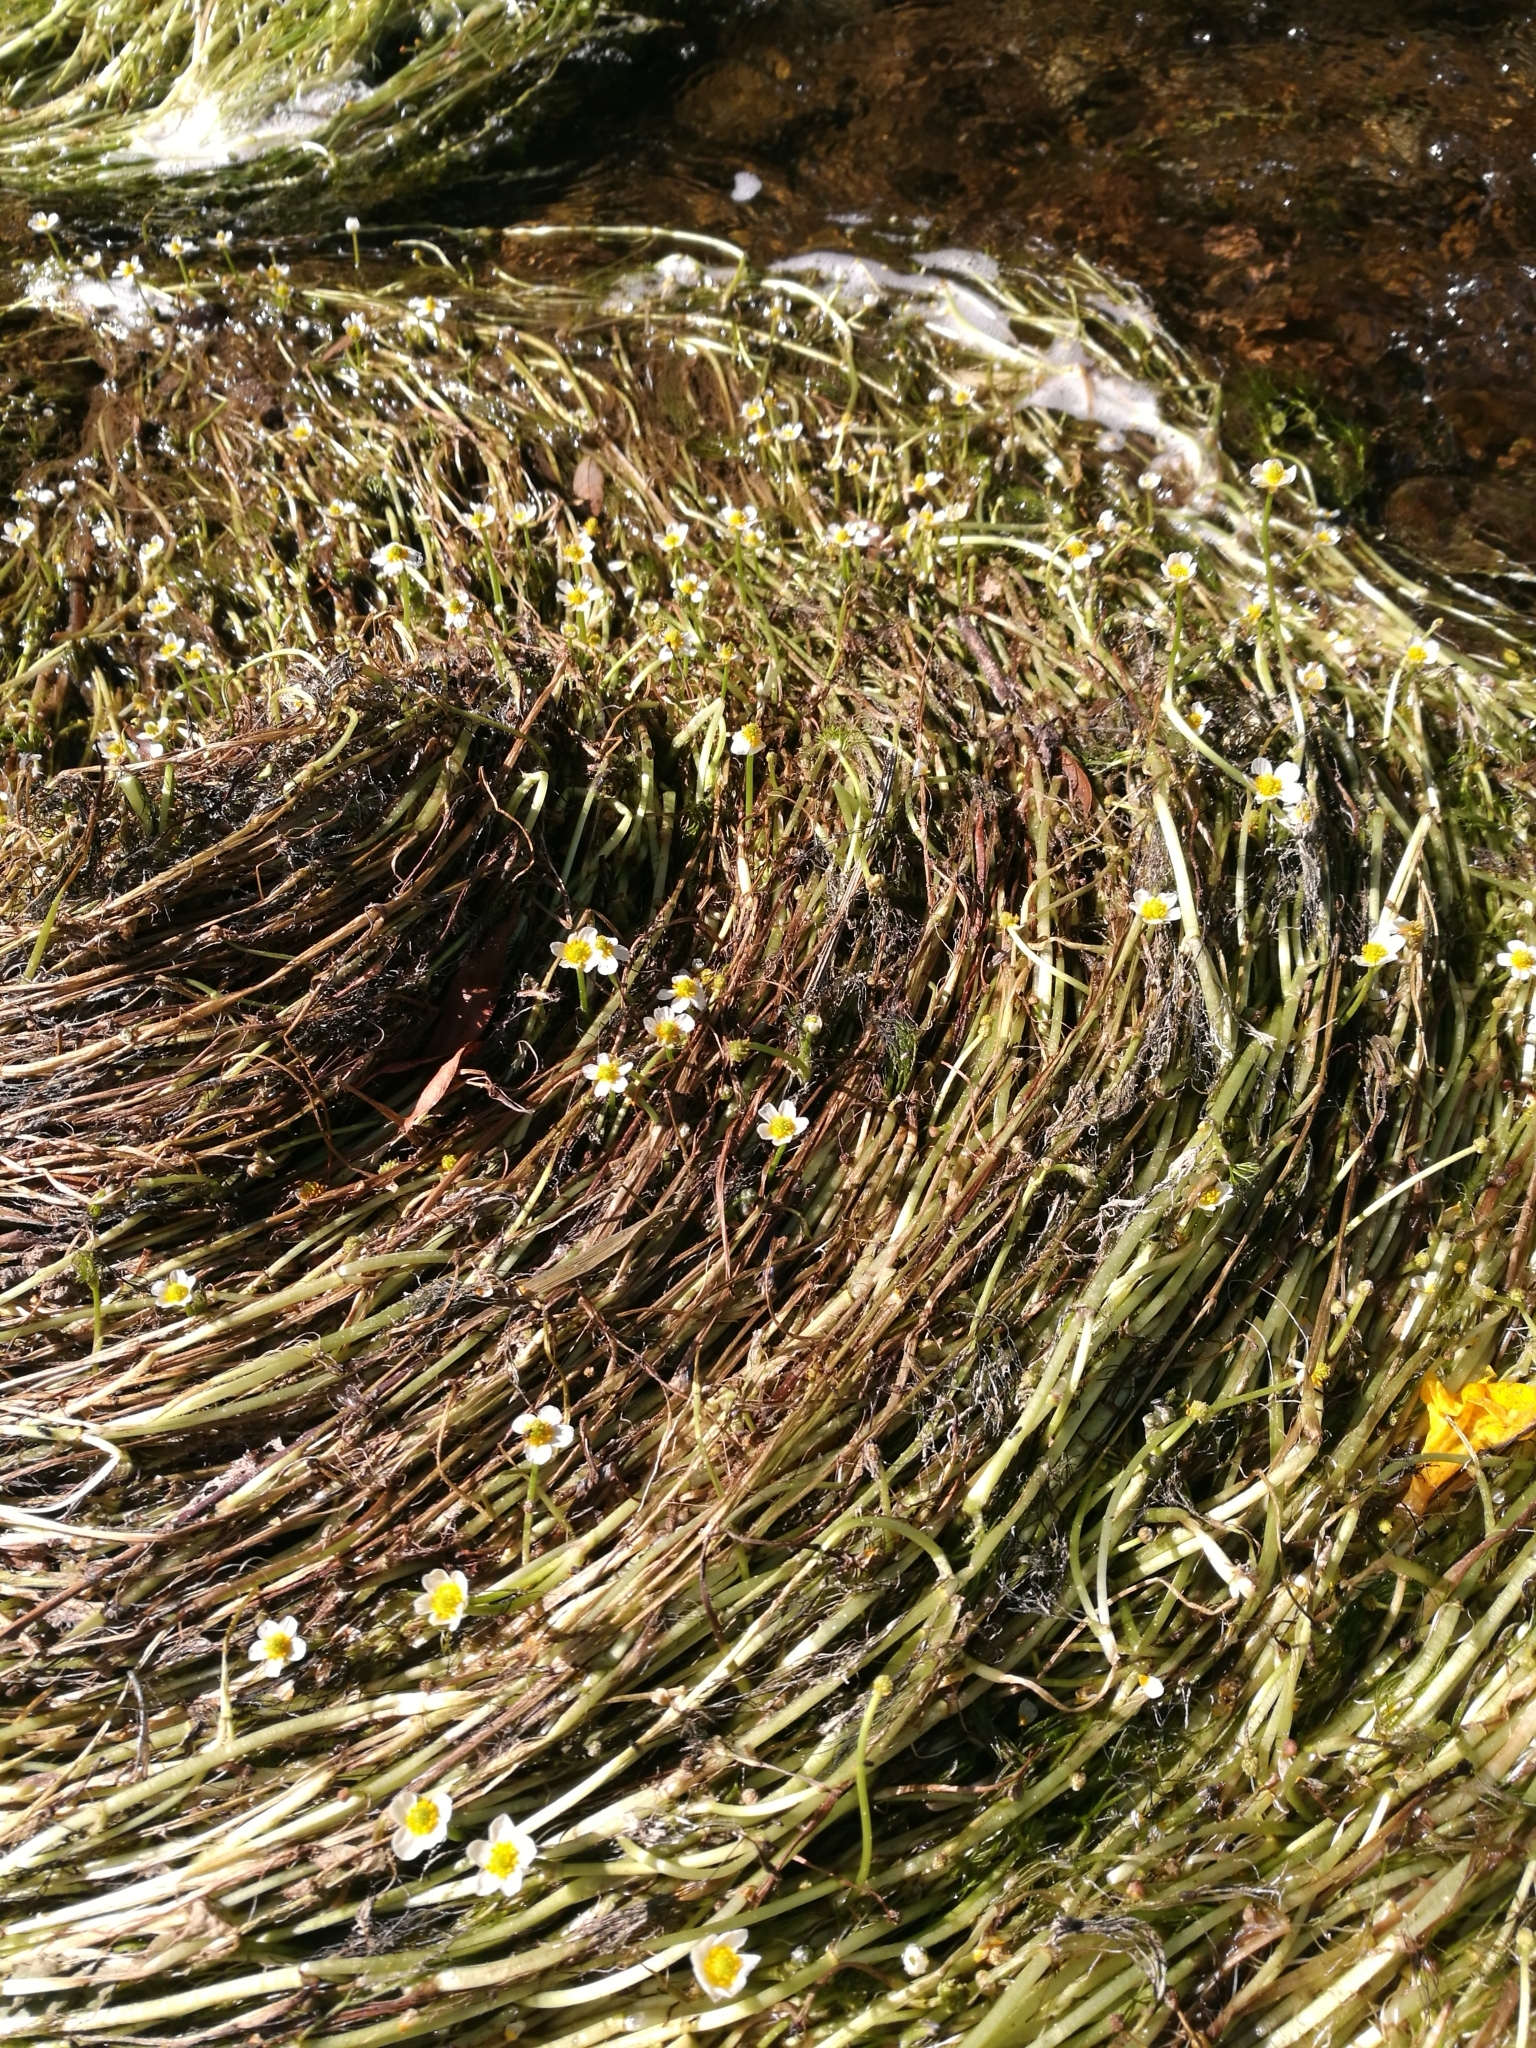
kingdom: Plantae
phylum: Tracheophyta
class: Magnoliopsida
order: Ranunculales
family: Ranunculaceae
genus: Ranunculus
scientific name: Ranunculus trichophyllus
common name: Thread-leaved water-crowfoot
